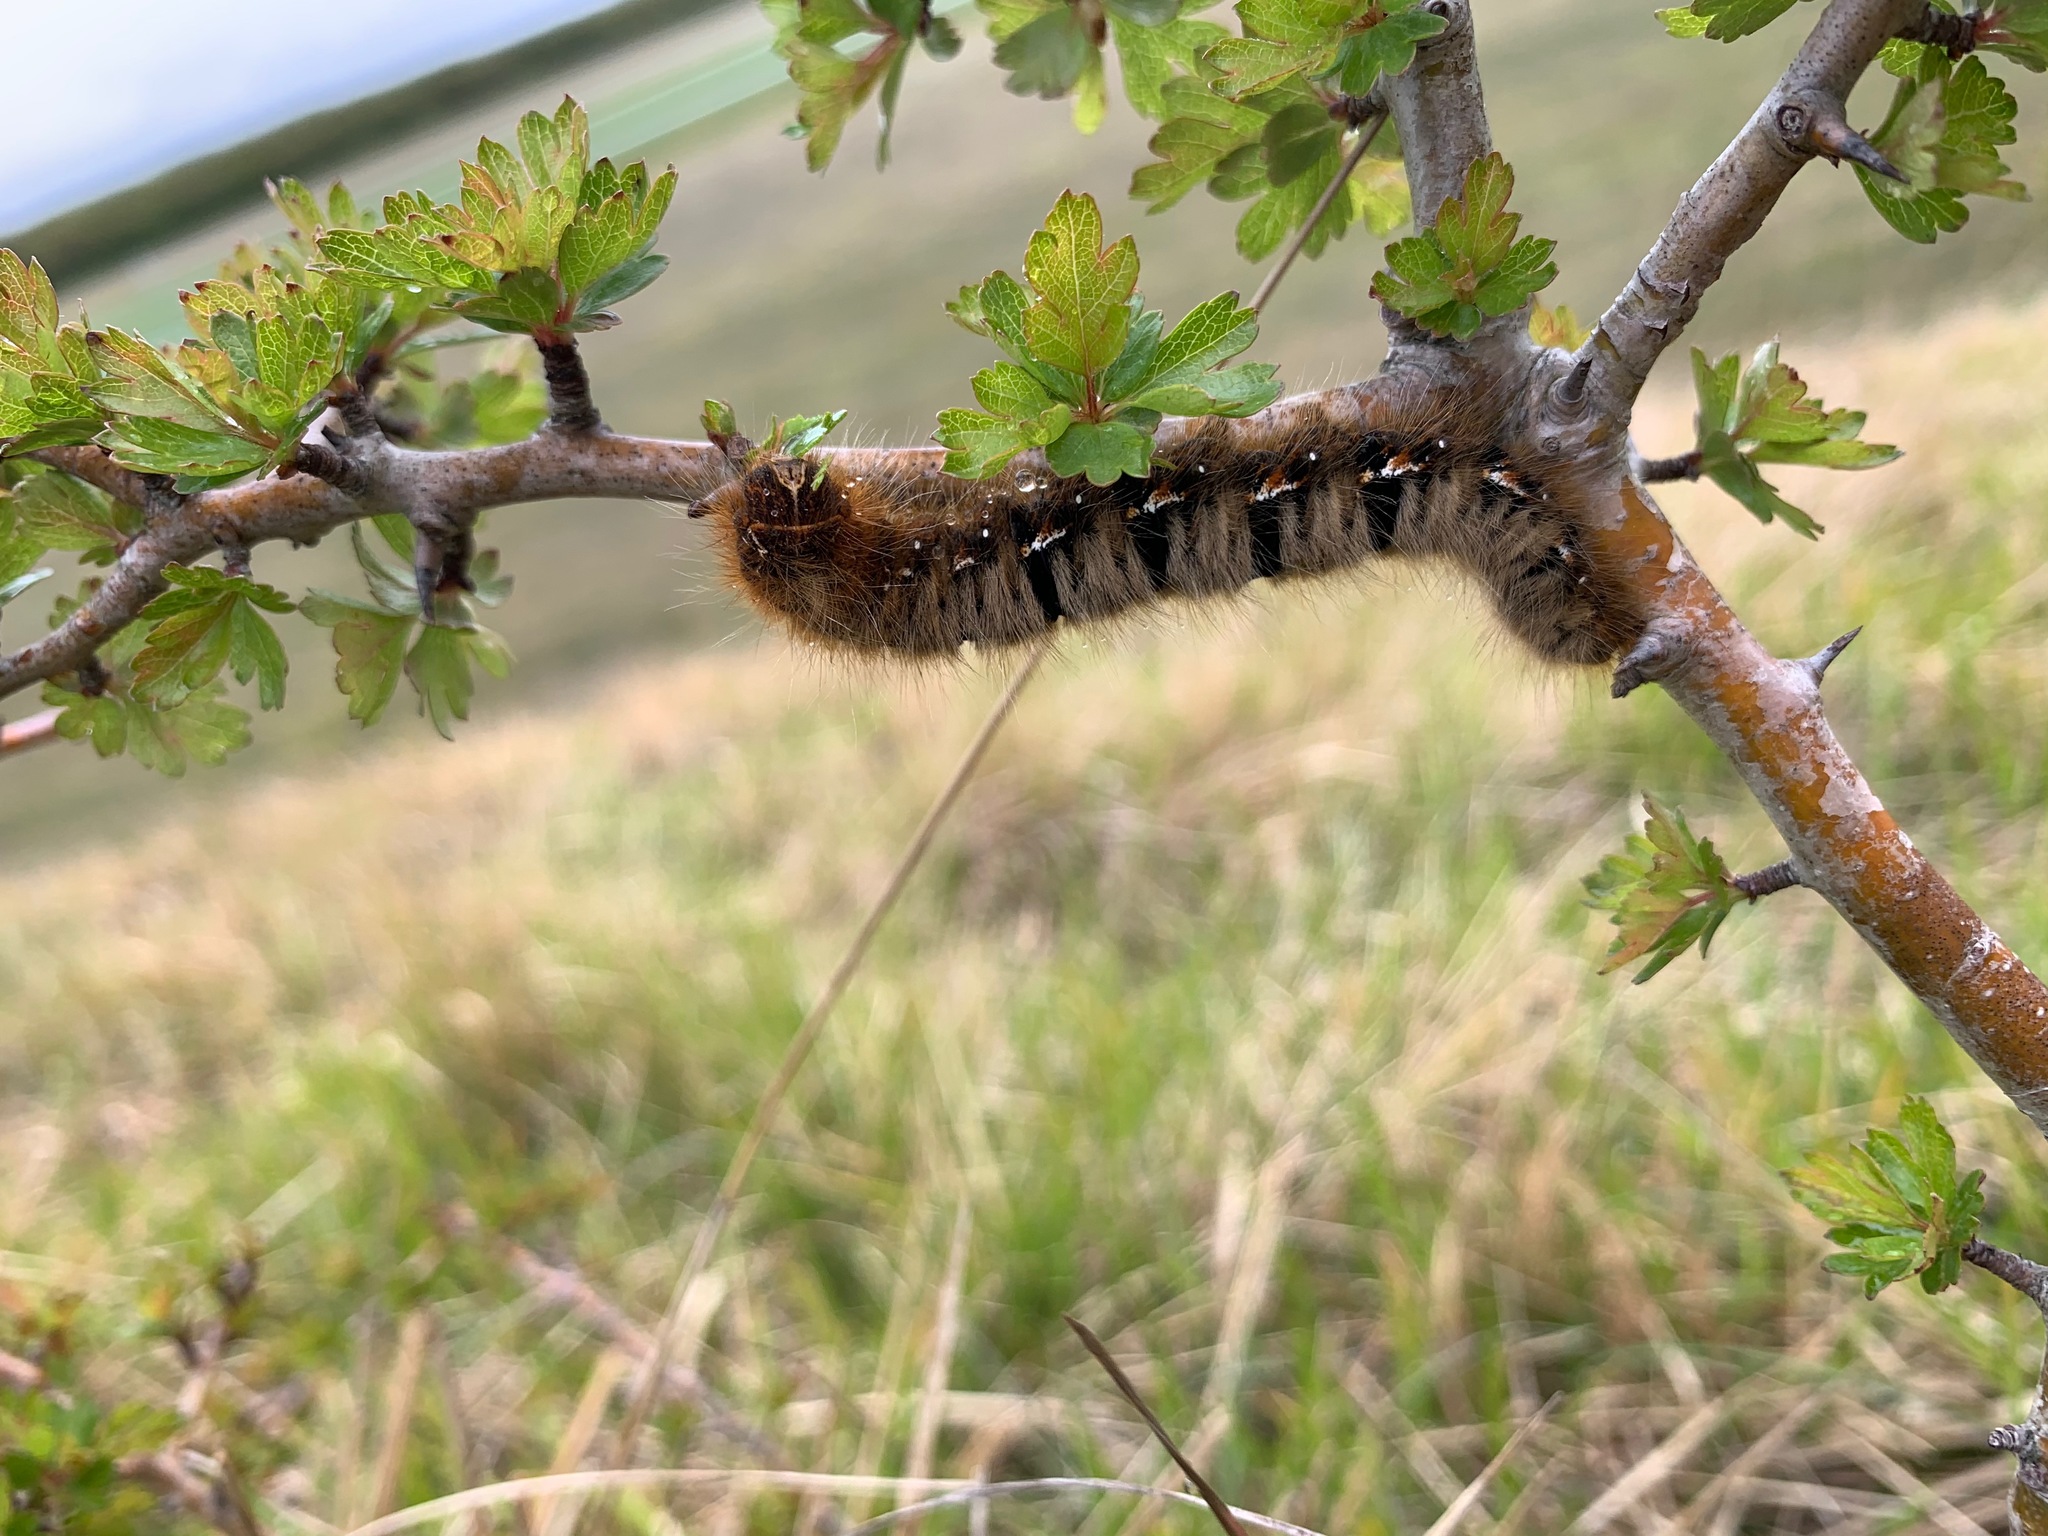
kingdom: Animalia
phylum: Arthropoda
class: Insecta
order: Lepidoptera
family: Lasiocampidae
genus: Lasiocampa
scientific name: Lasiocampa quercus
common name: Oak eggar
